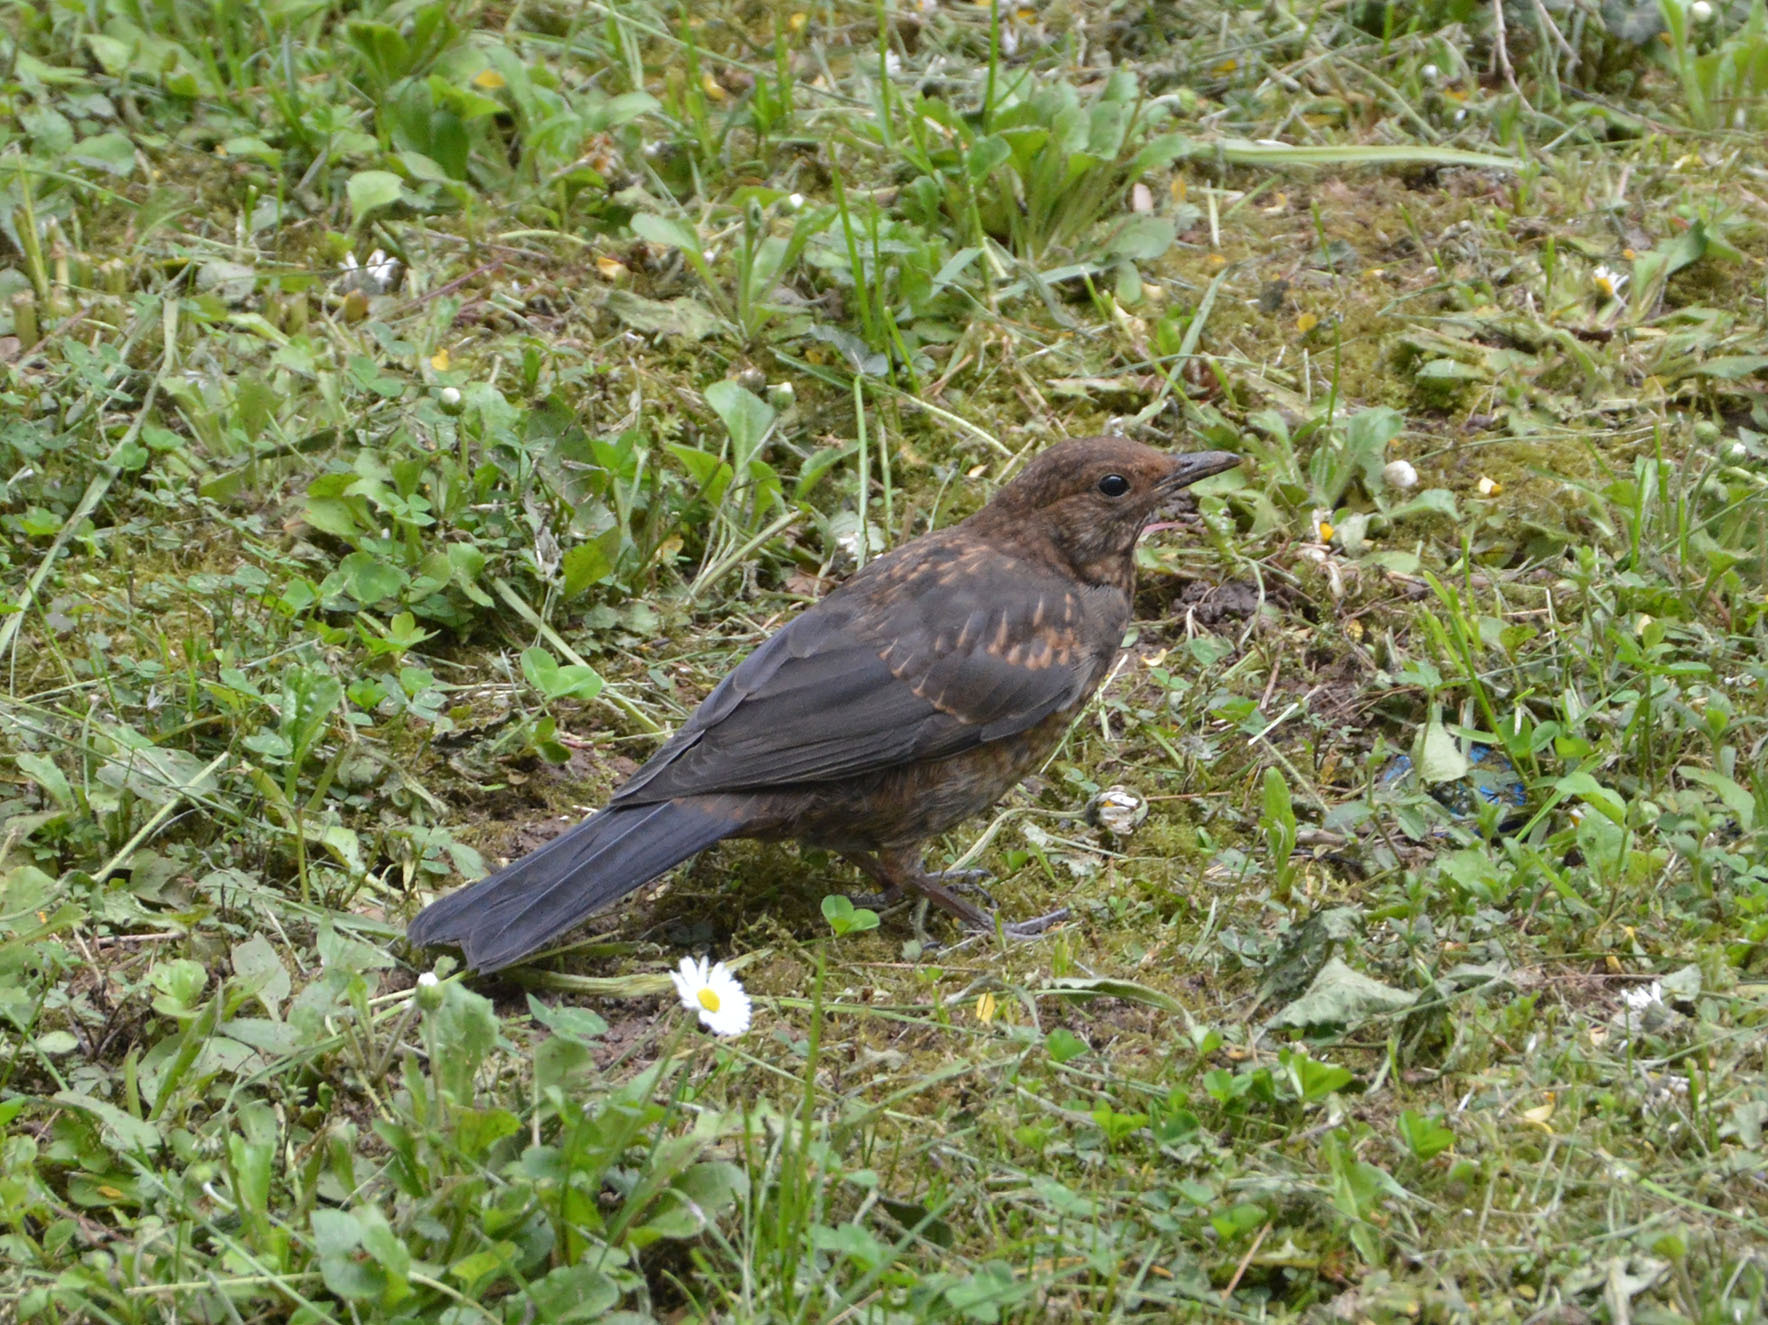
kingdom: Animalia
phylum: Chordata
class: Aves
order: Passeriformes
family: Turdidae
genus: Turdus
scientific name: Turdus merula
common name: Common blackbird
